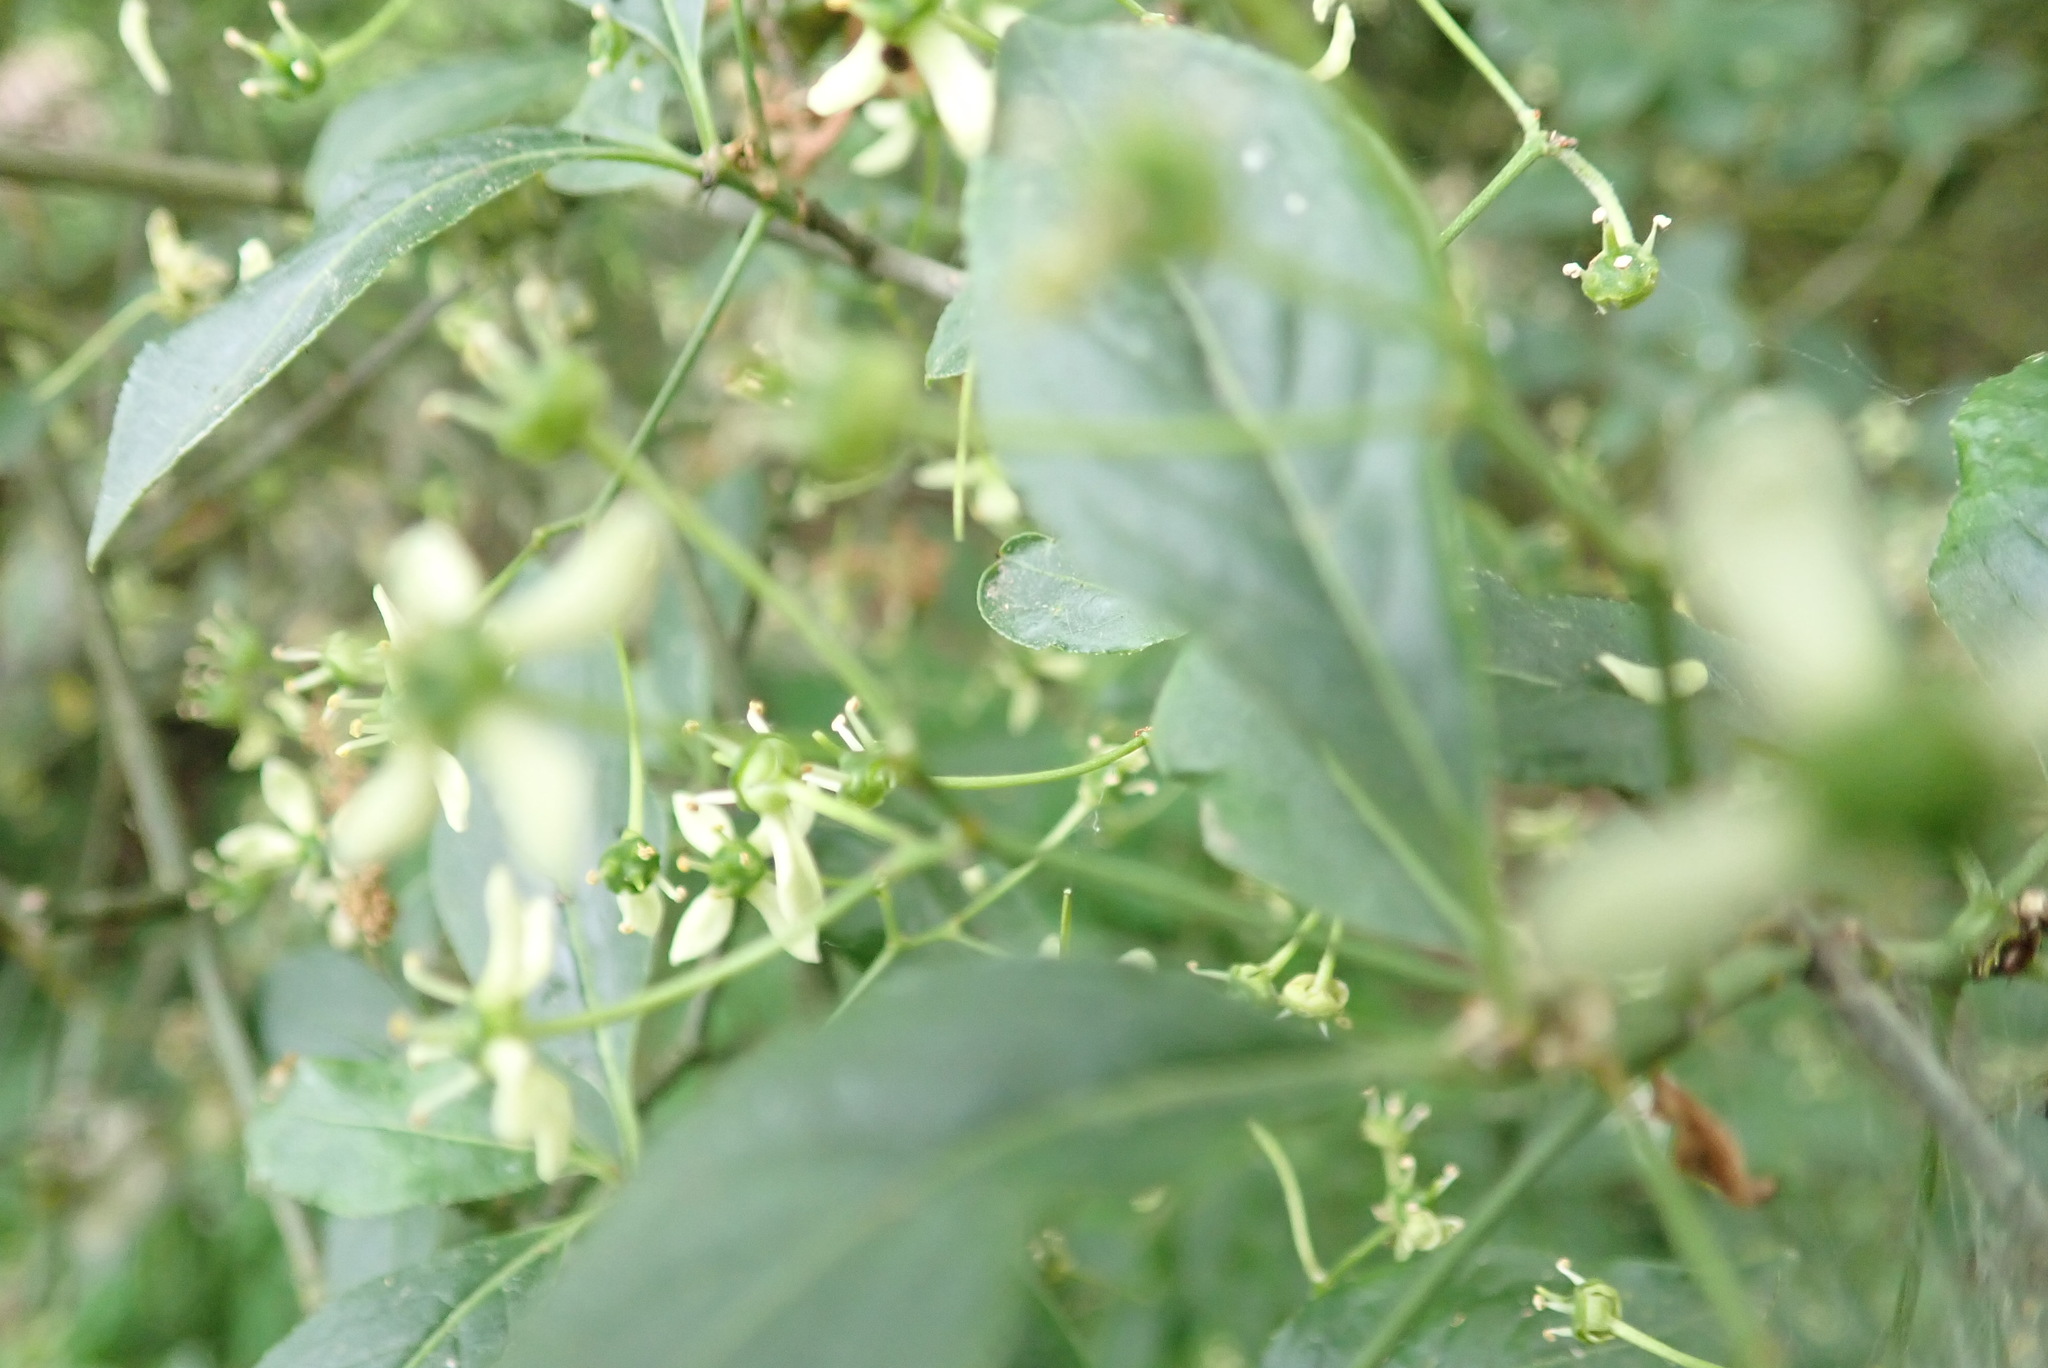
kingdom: Plantae
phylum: Tracheophyta
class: Magnoliopsida
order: Celastrales
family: Celastraceae
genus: Euonymus
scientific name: Euonymus europaeus
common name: Spindle
